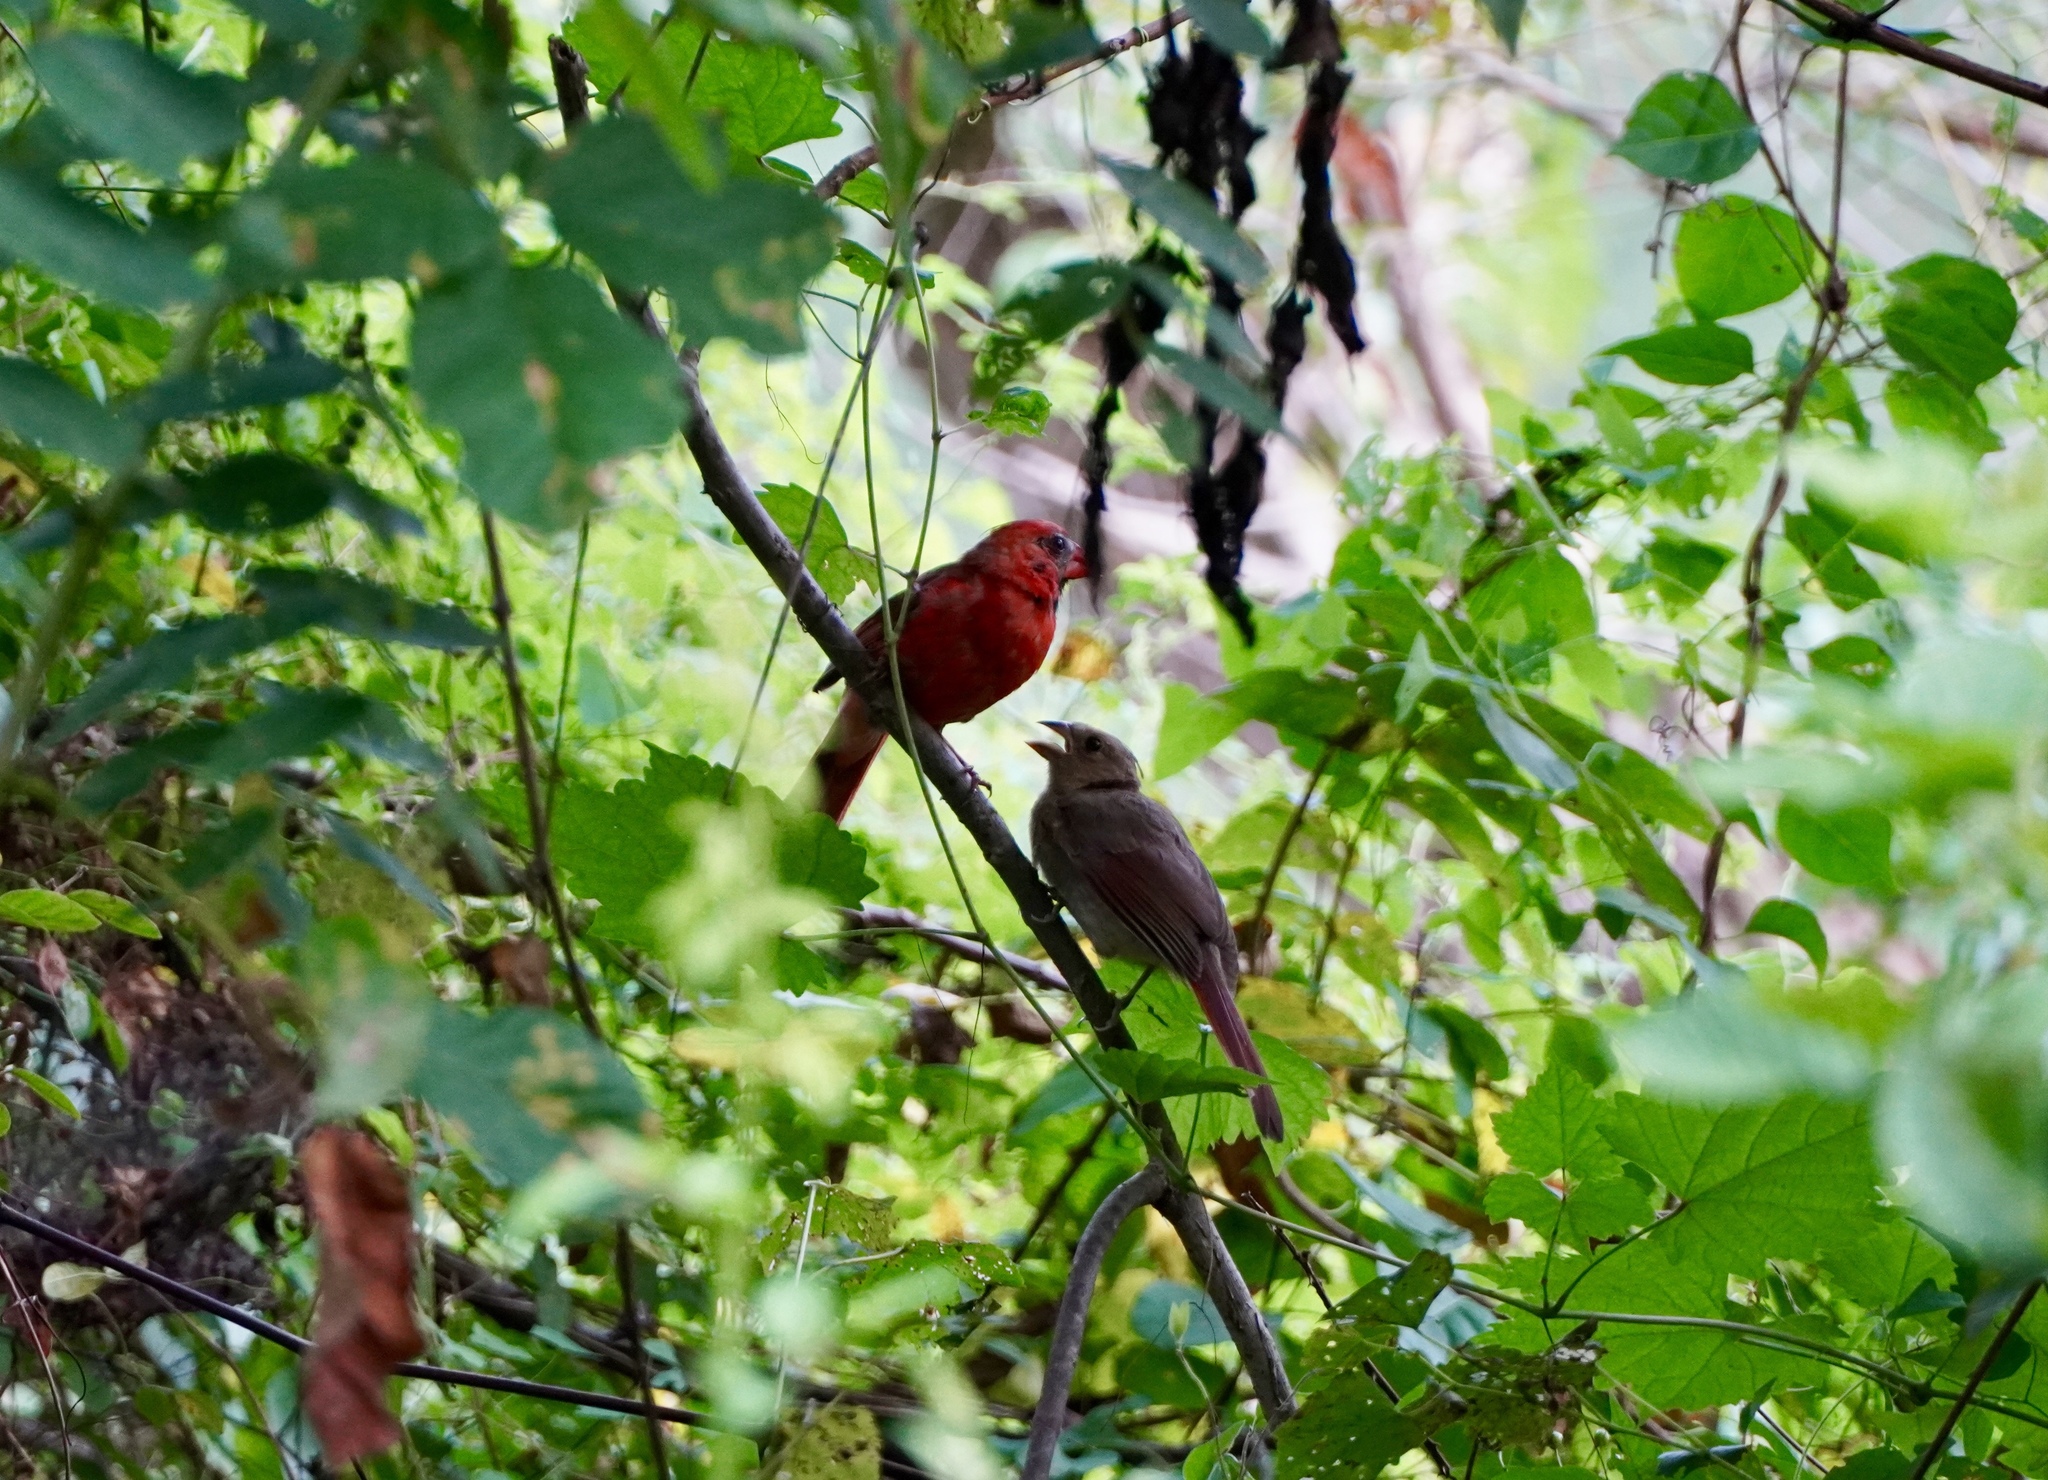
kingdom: Animalia
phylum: Chordata
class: Aves
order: Passeriformes
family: Cardinalidae
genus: Cardinalis
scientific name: Cardinalis cardinalis
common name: Northern cardinal
